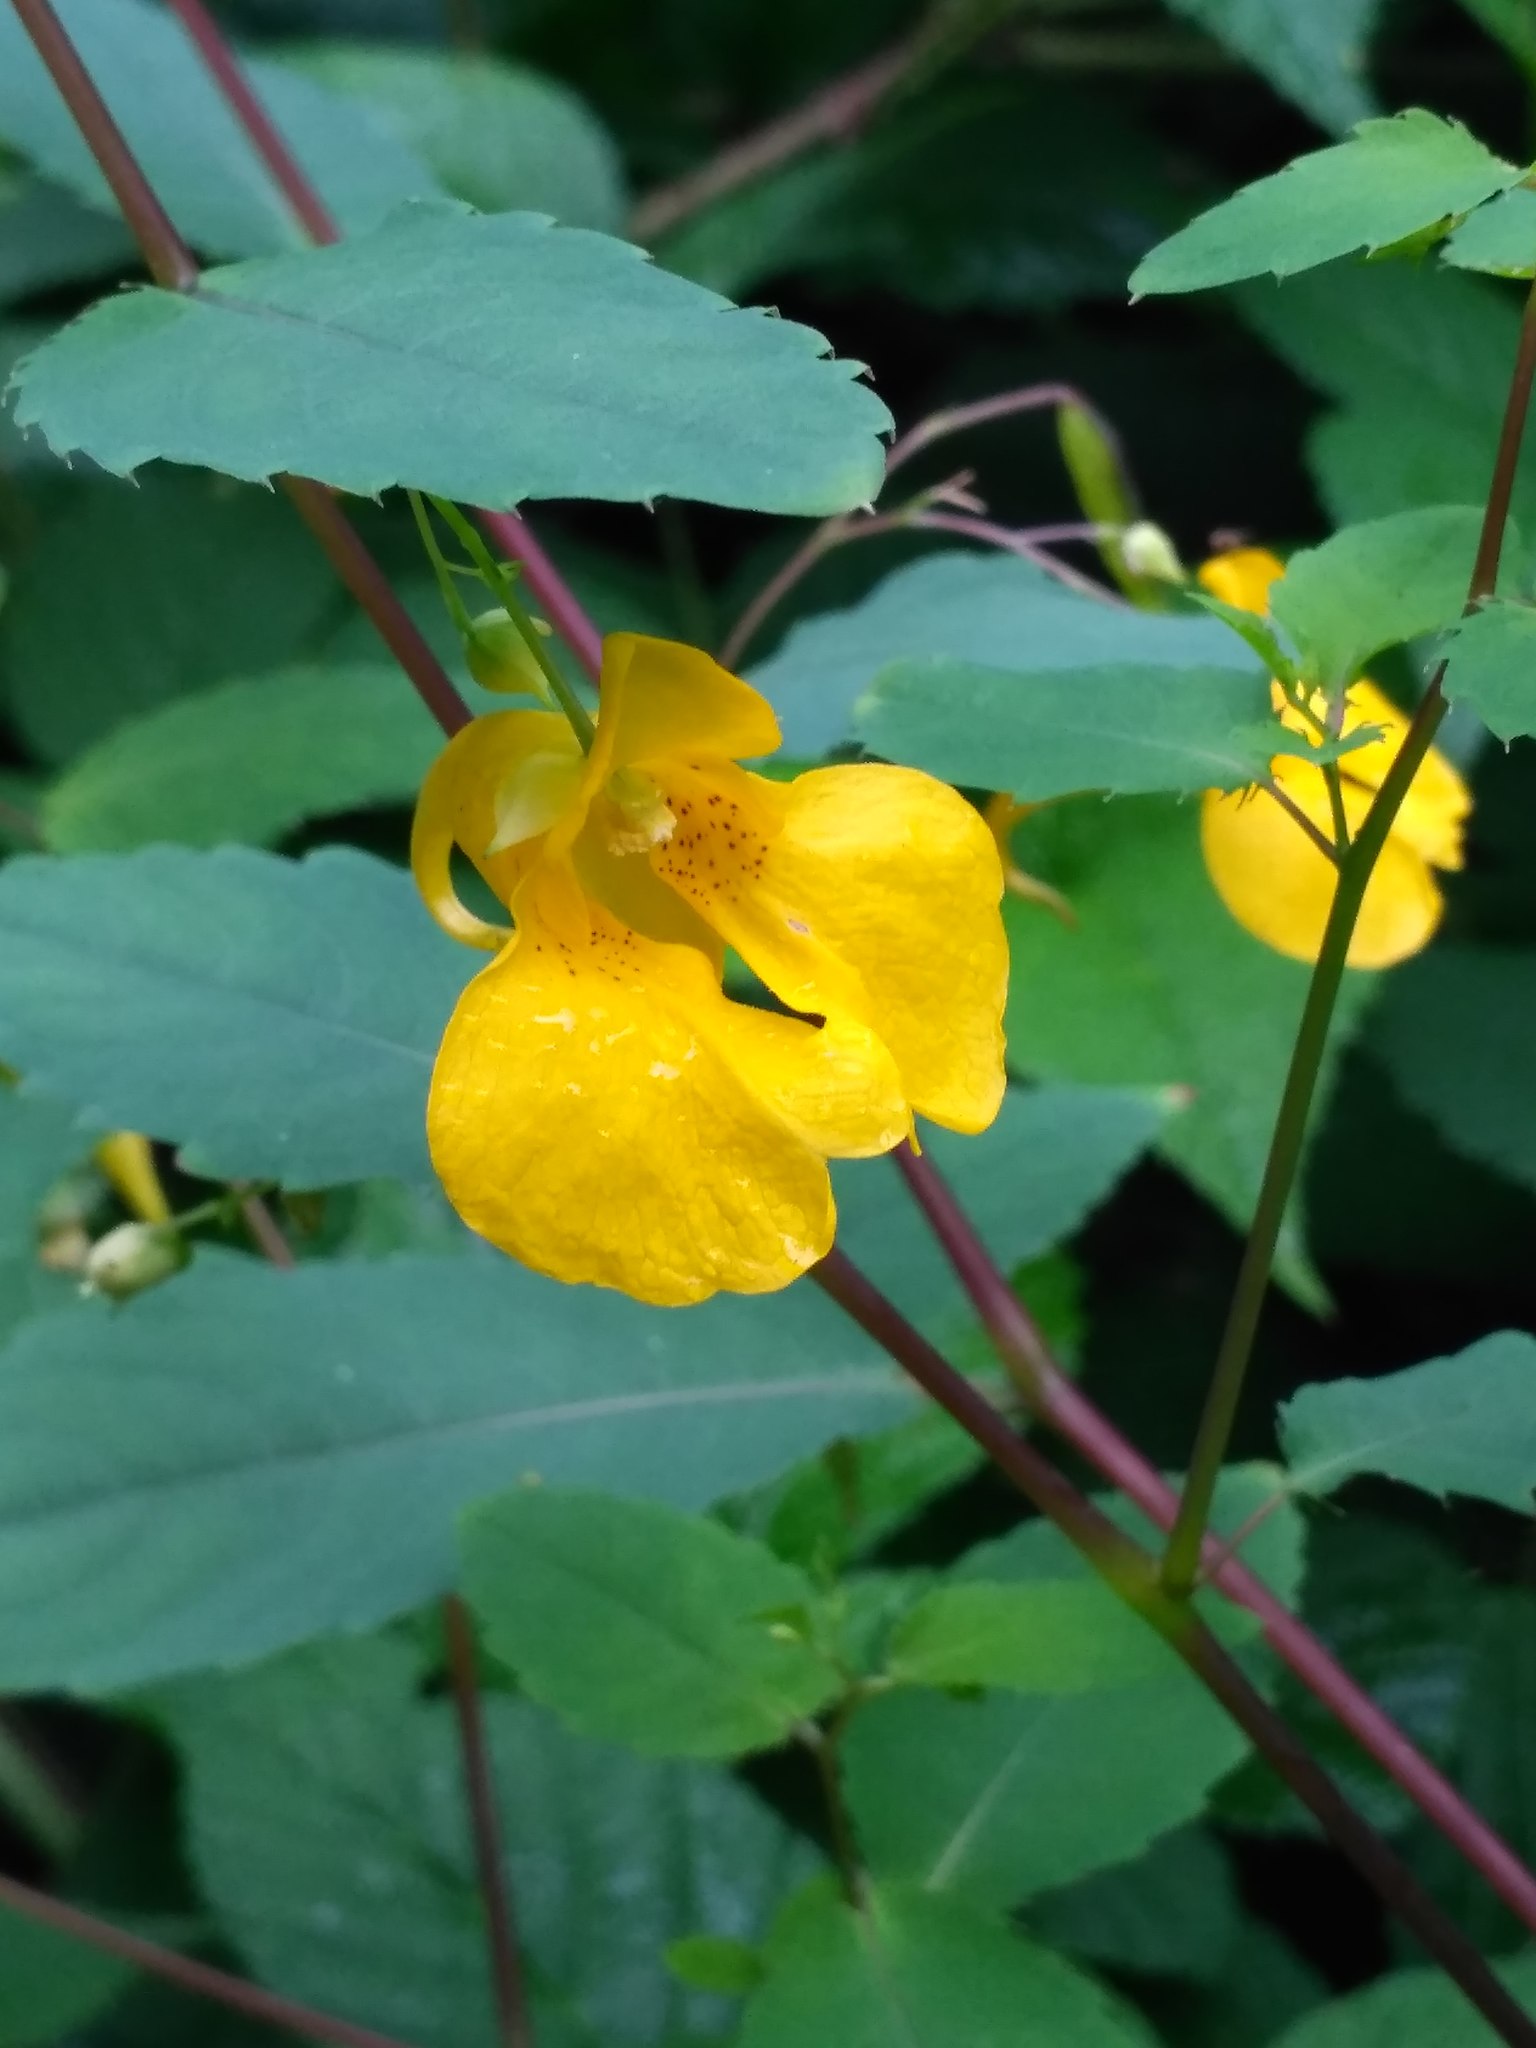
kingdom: Plantae
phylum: Tracheophyta
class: Magnoliopsida
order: Ericales
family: Balsaminaceae
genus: Impatiens
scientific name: Impatiens noli-tangere
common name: Touch-me-not balsam
